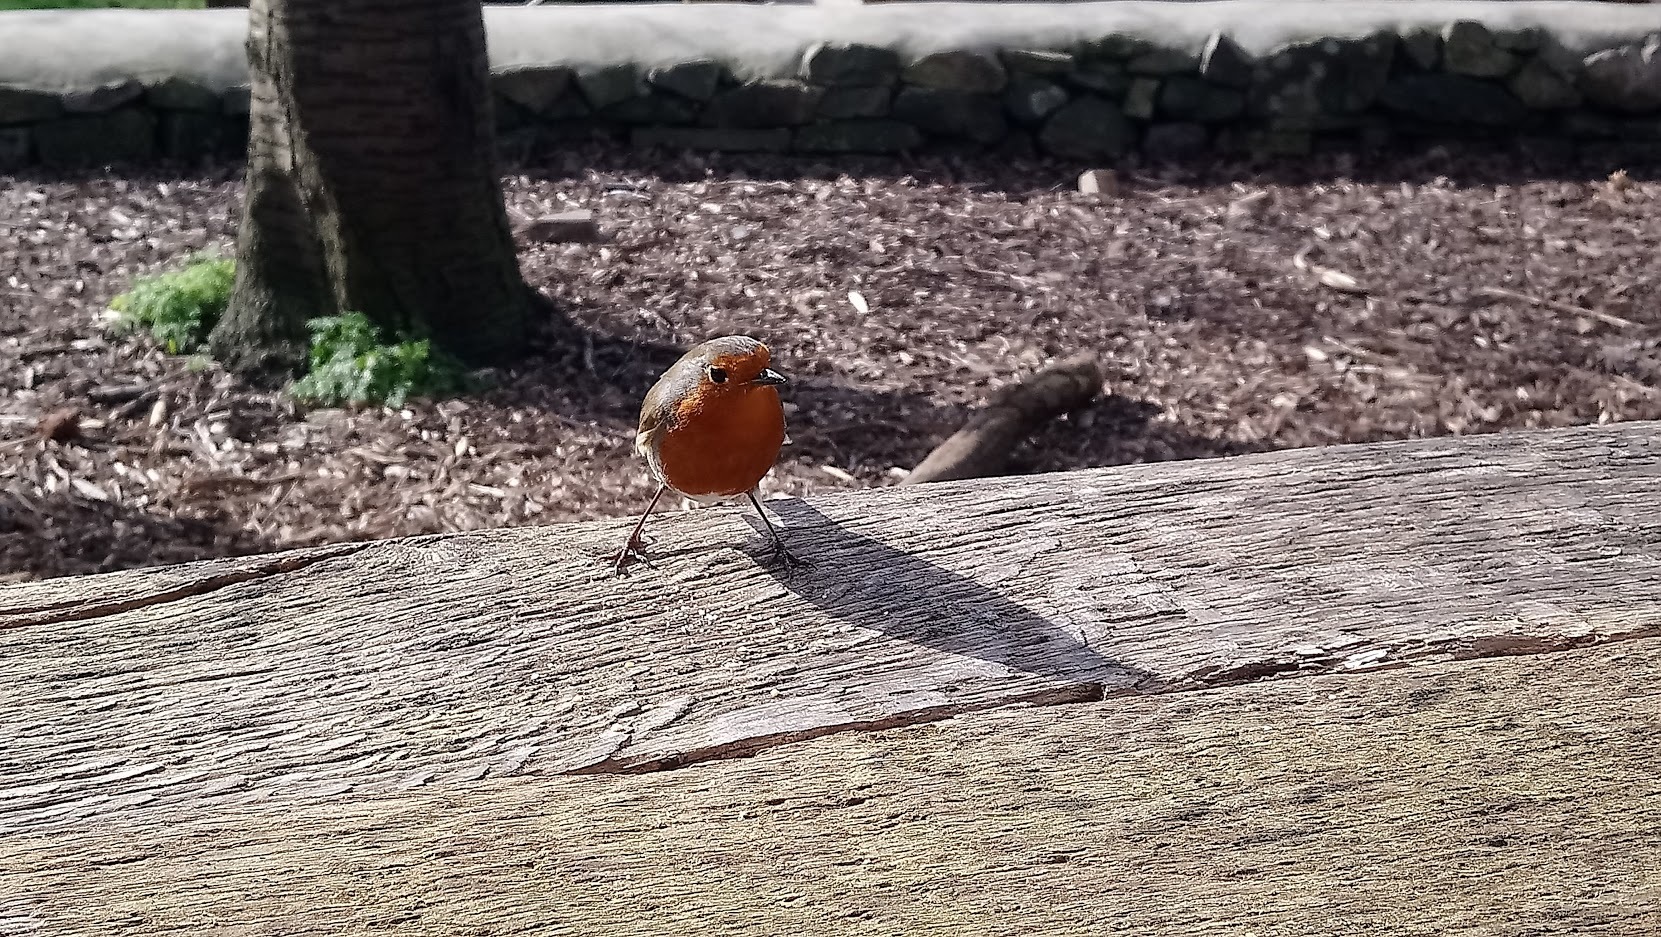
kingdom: Animalia
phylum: Chordata
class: Aves
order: Passeriformes
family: Muscicapidae
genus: Erithacus
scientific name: Erithacus rubecula
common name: European robin
